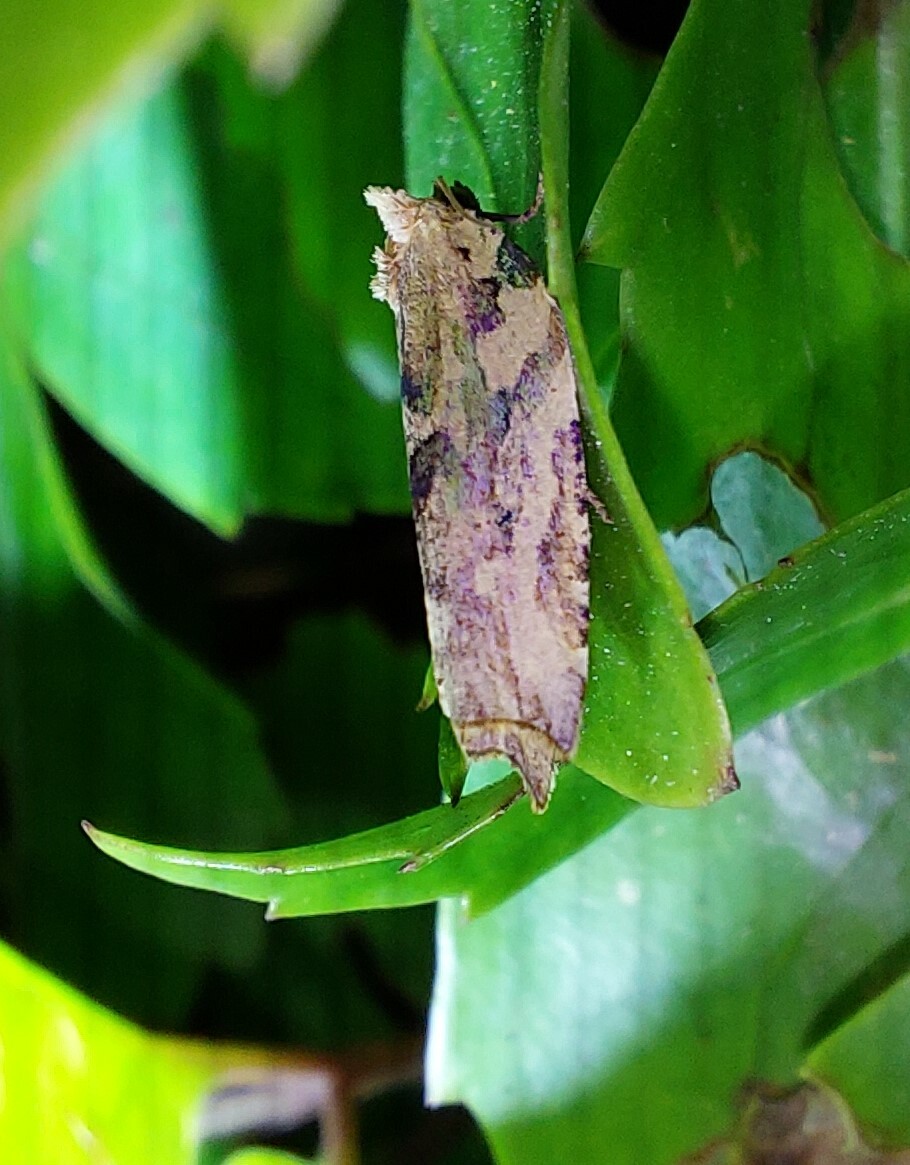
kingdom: Animalia
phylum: Arthropoda
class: Insecta
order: Lepidoptera
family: Tortricidae
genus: Epalxiphora
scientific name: Epalxiphora axenana
